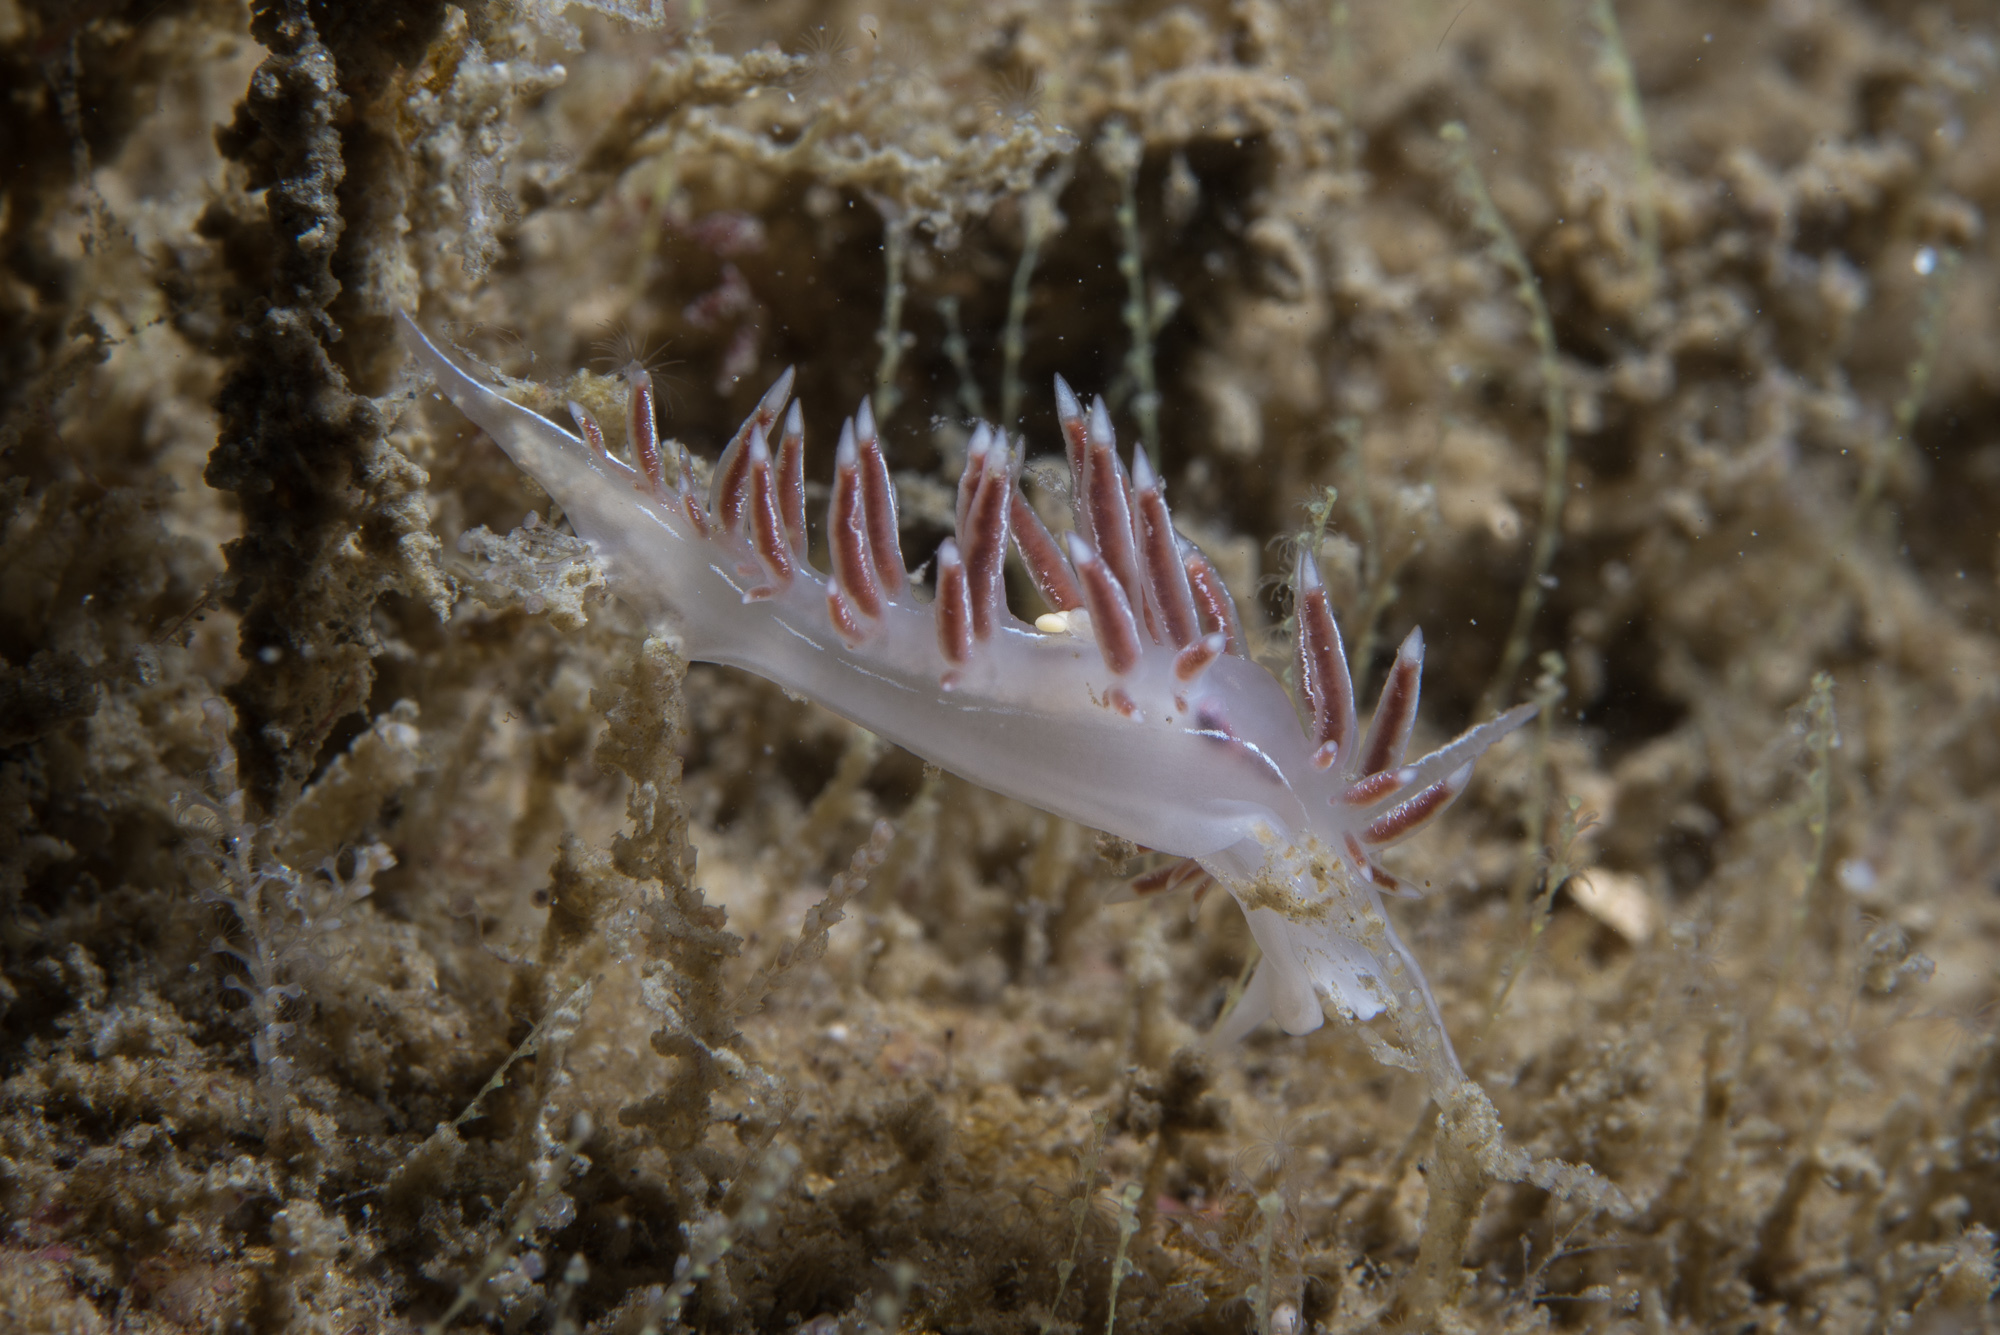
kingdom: Animalia
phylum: Mollusca
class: Gastropoda
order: Nudibranchia
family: Coryphellidae
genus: Coryphella
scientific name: Coryphella chriskaugei
